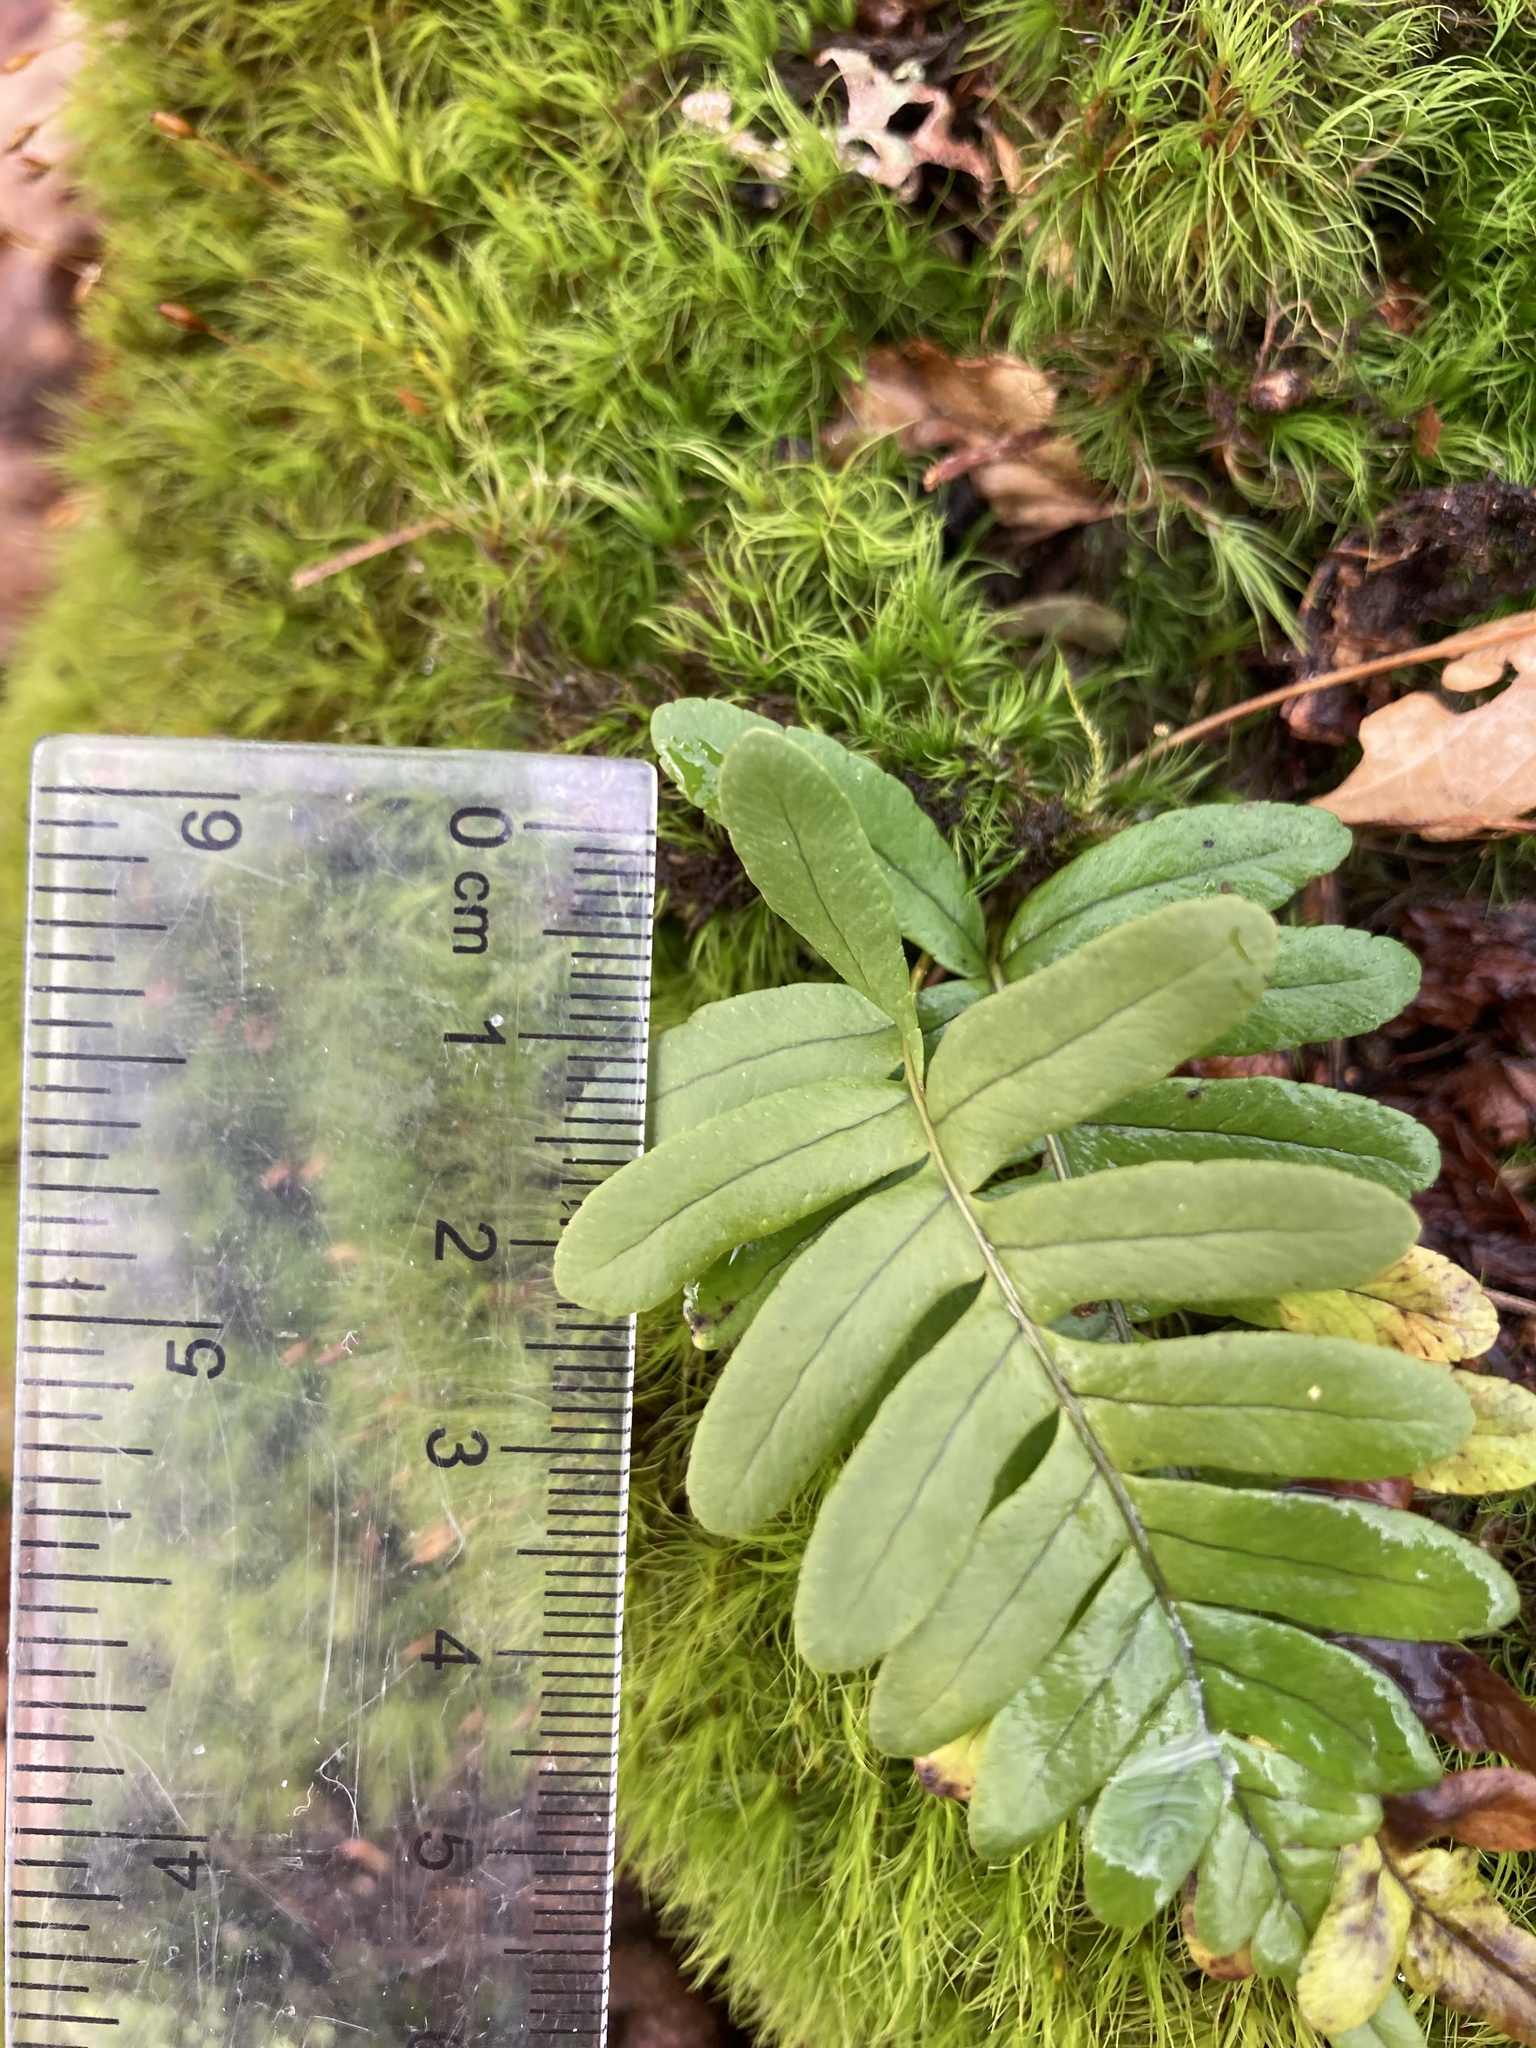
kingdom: Plantae
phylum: Tracheophyta
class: Polypodiopsida
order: Polypodiales
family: Polypodiaceae
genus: Polypodium
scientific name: Polypodium virginianum
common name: American wall fern
